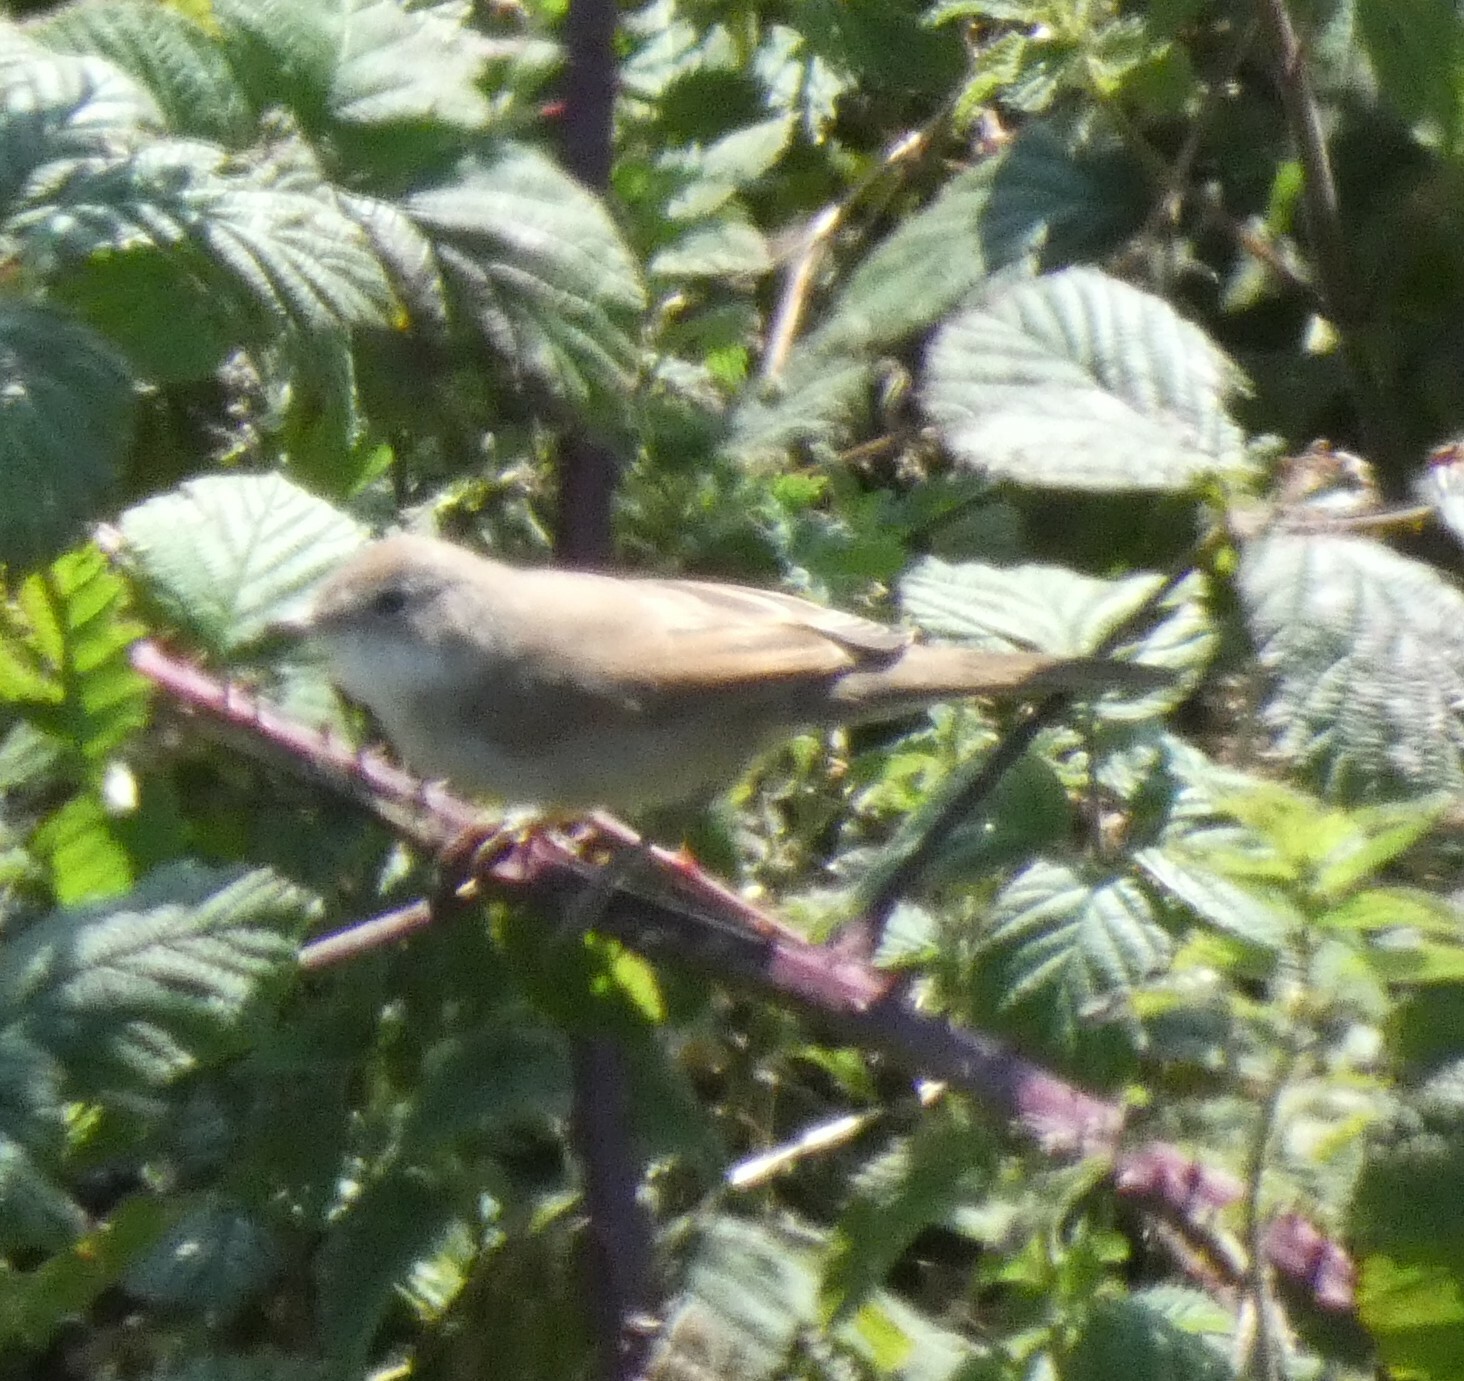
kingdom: Animalia
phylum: Chordata
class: Aves
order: Passeriformes
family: Sylviidae
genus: Sylvia
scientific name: Sylvia communis
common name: Common whitethroat
